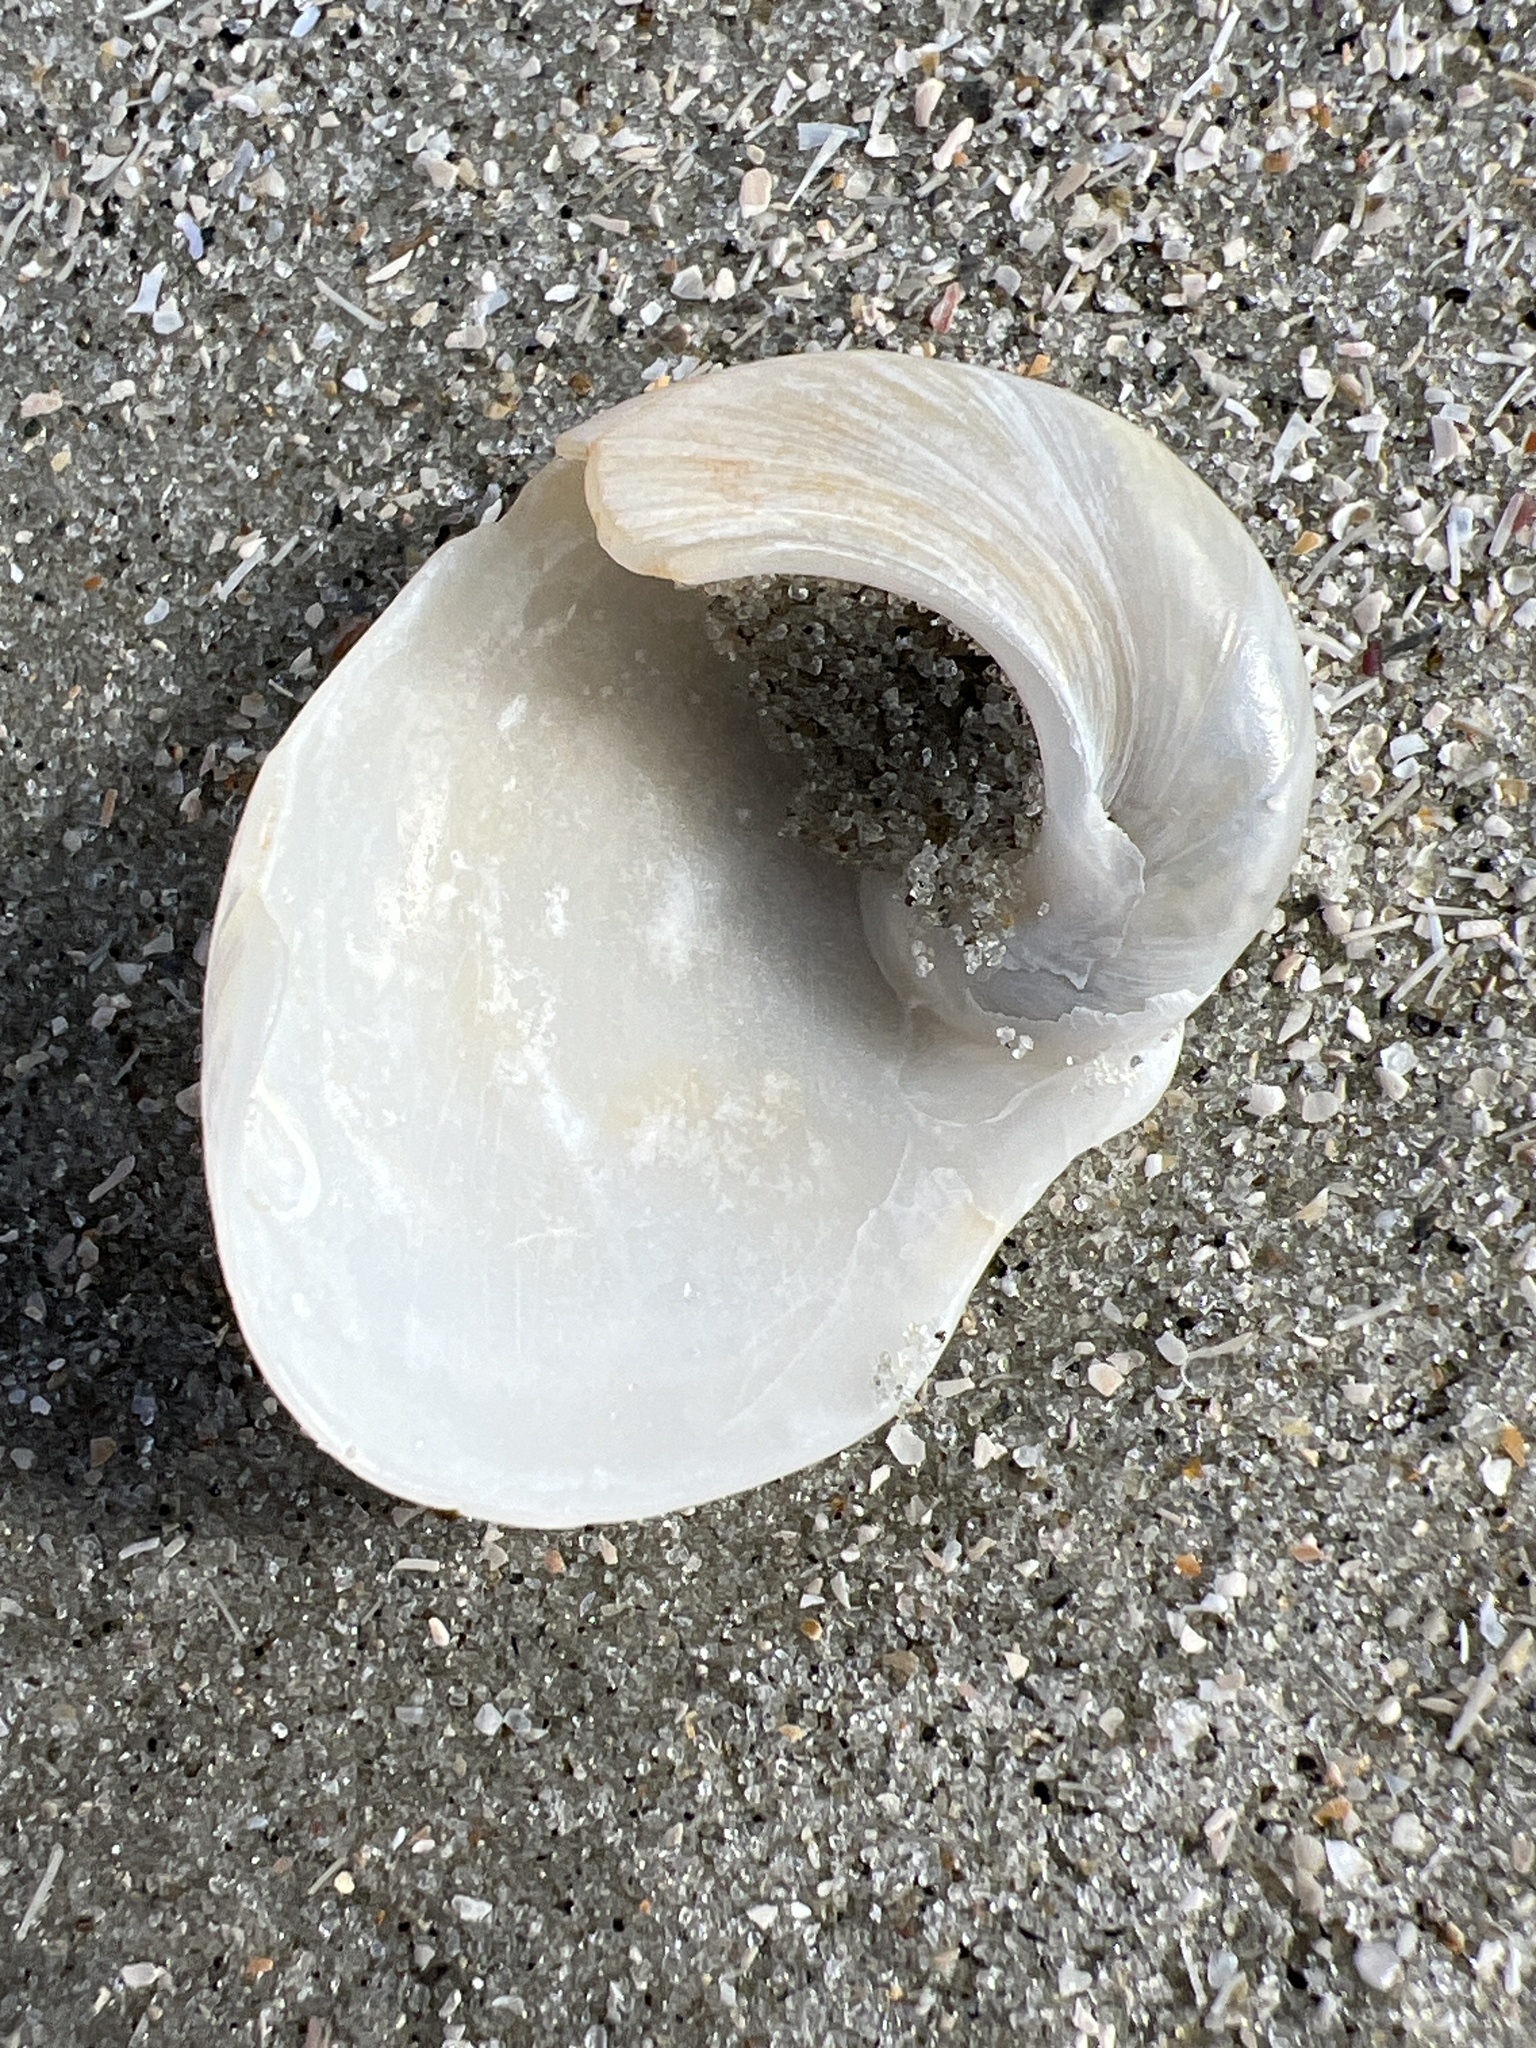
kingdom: Animalia
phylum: Mollusca
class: Gastropoda
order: Littorinimorpha
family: Naticidae
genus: Sinum
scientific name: Sinum perspectivum
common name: White baby ear
